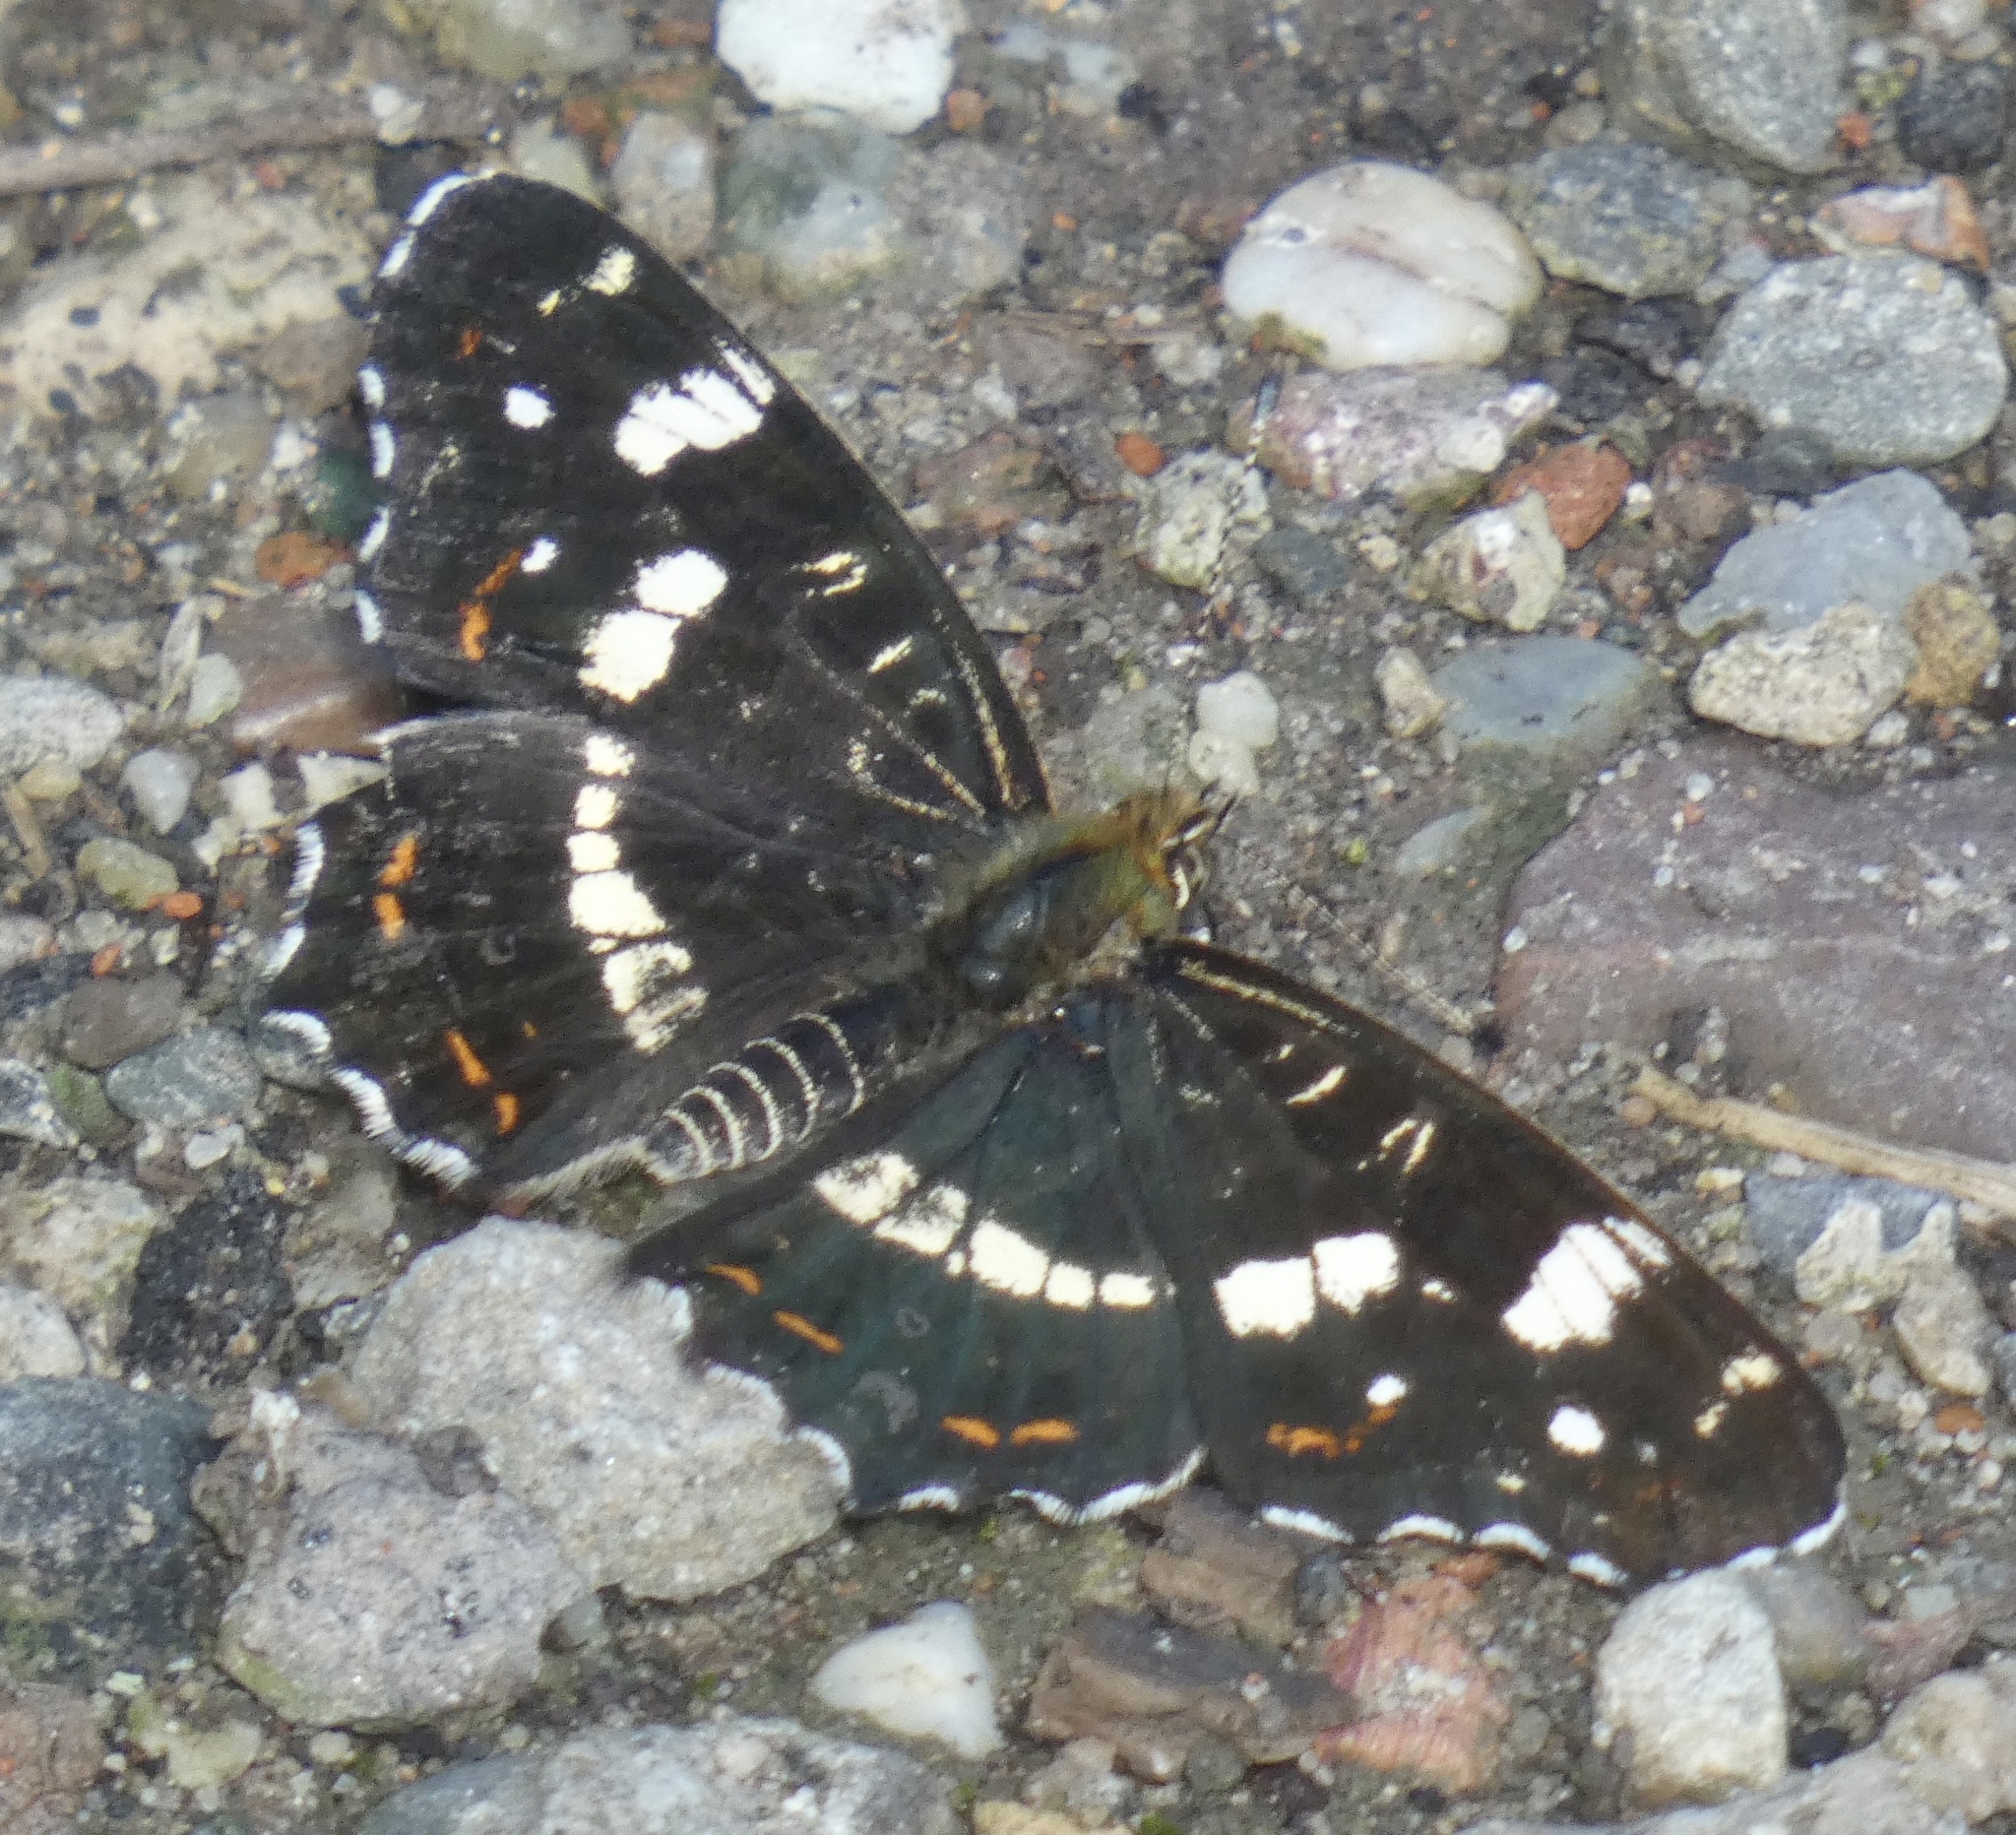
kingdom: Animalia
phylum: Arthropoda
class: Insecta
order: Lepidoptera
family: Nymphalidae
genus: Araschnia
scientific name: Araschnia levana
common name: Map butterfly
